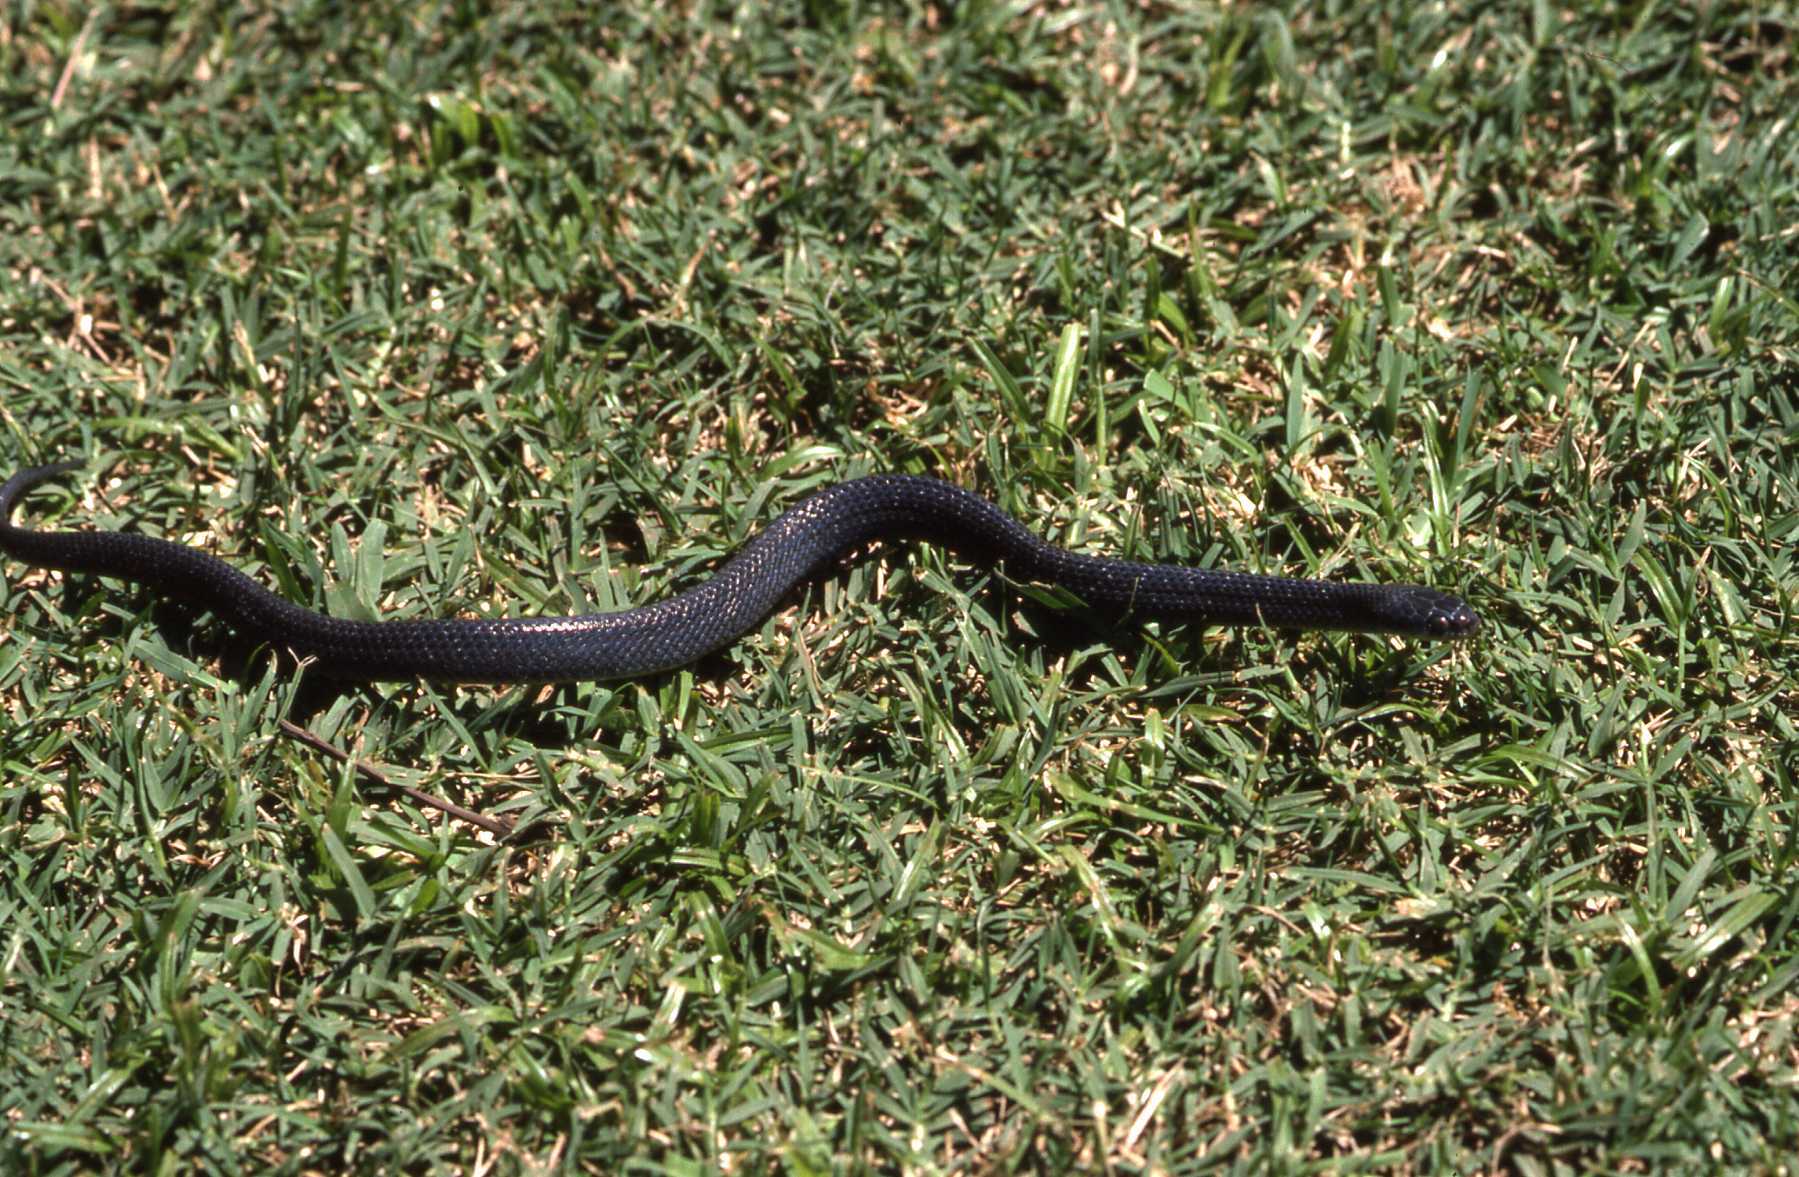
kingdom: Animalia
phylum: Chordata
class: Squamata
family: Colubridae
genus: Crotaphopeltis
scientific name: Crotaphopeltis hotamboeia
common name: Red-lipped snake
